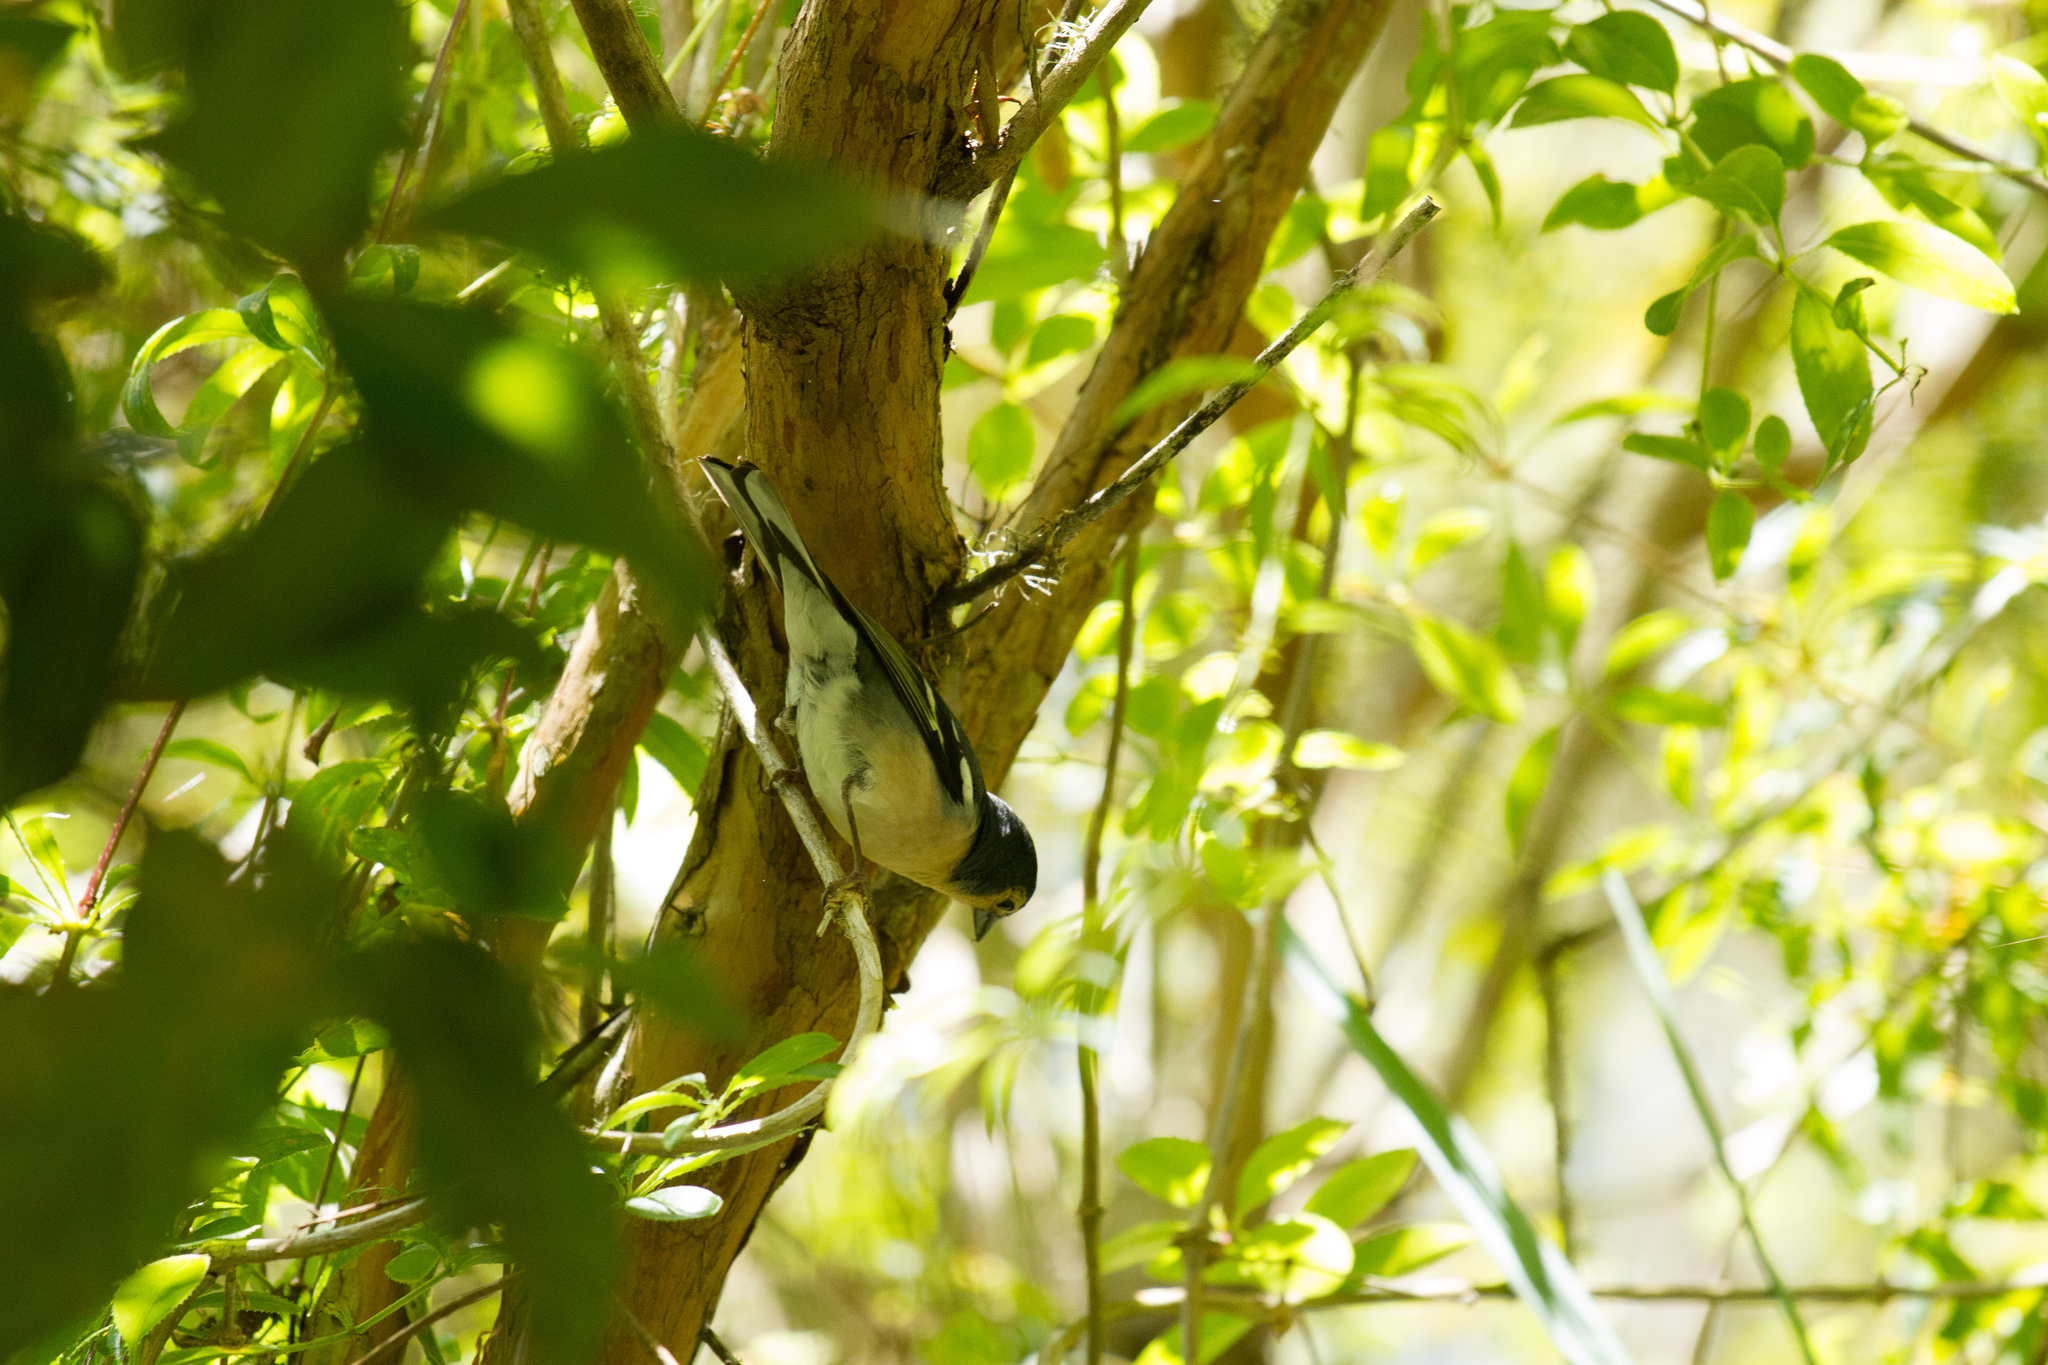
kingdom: Animalia
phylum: Chordata
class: Aves
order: Passeriformes
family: Fringillidae
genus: Fringilla
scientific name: Fringilla canariensis
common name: Canary islands chaffinch
